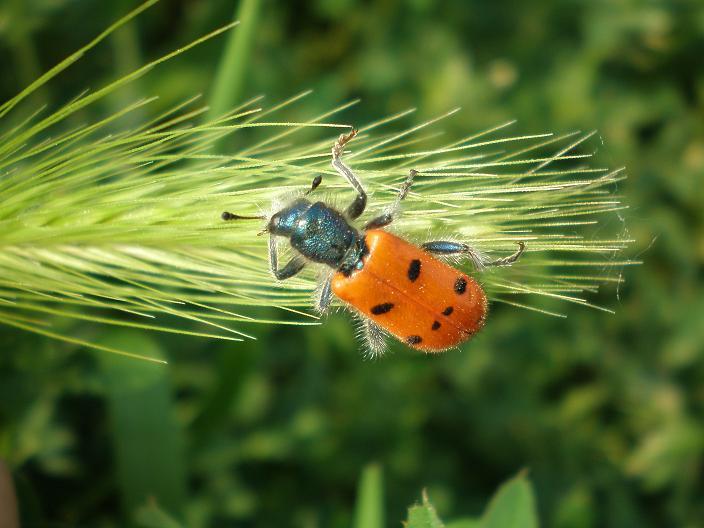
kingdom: Animalia
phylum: Arthropoda
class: Insecta
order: Coleoptera
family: Cleridae
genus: Trichodes
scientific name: Trichodes octopunctatus
